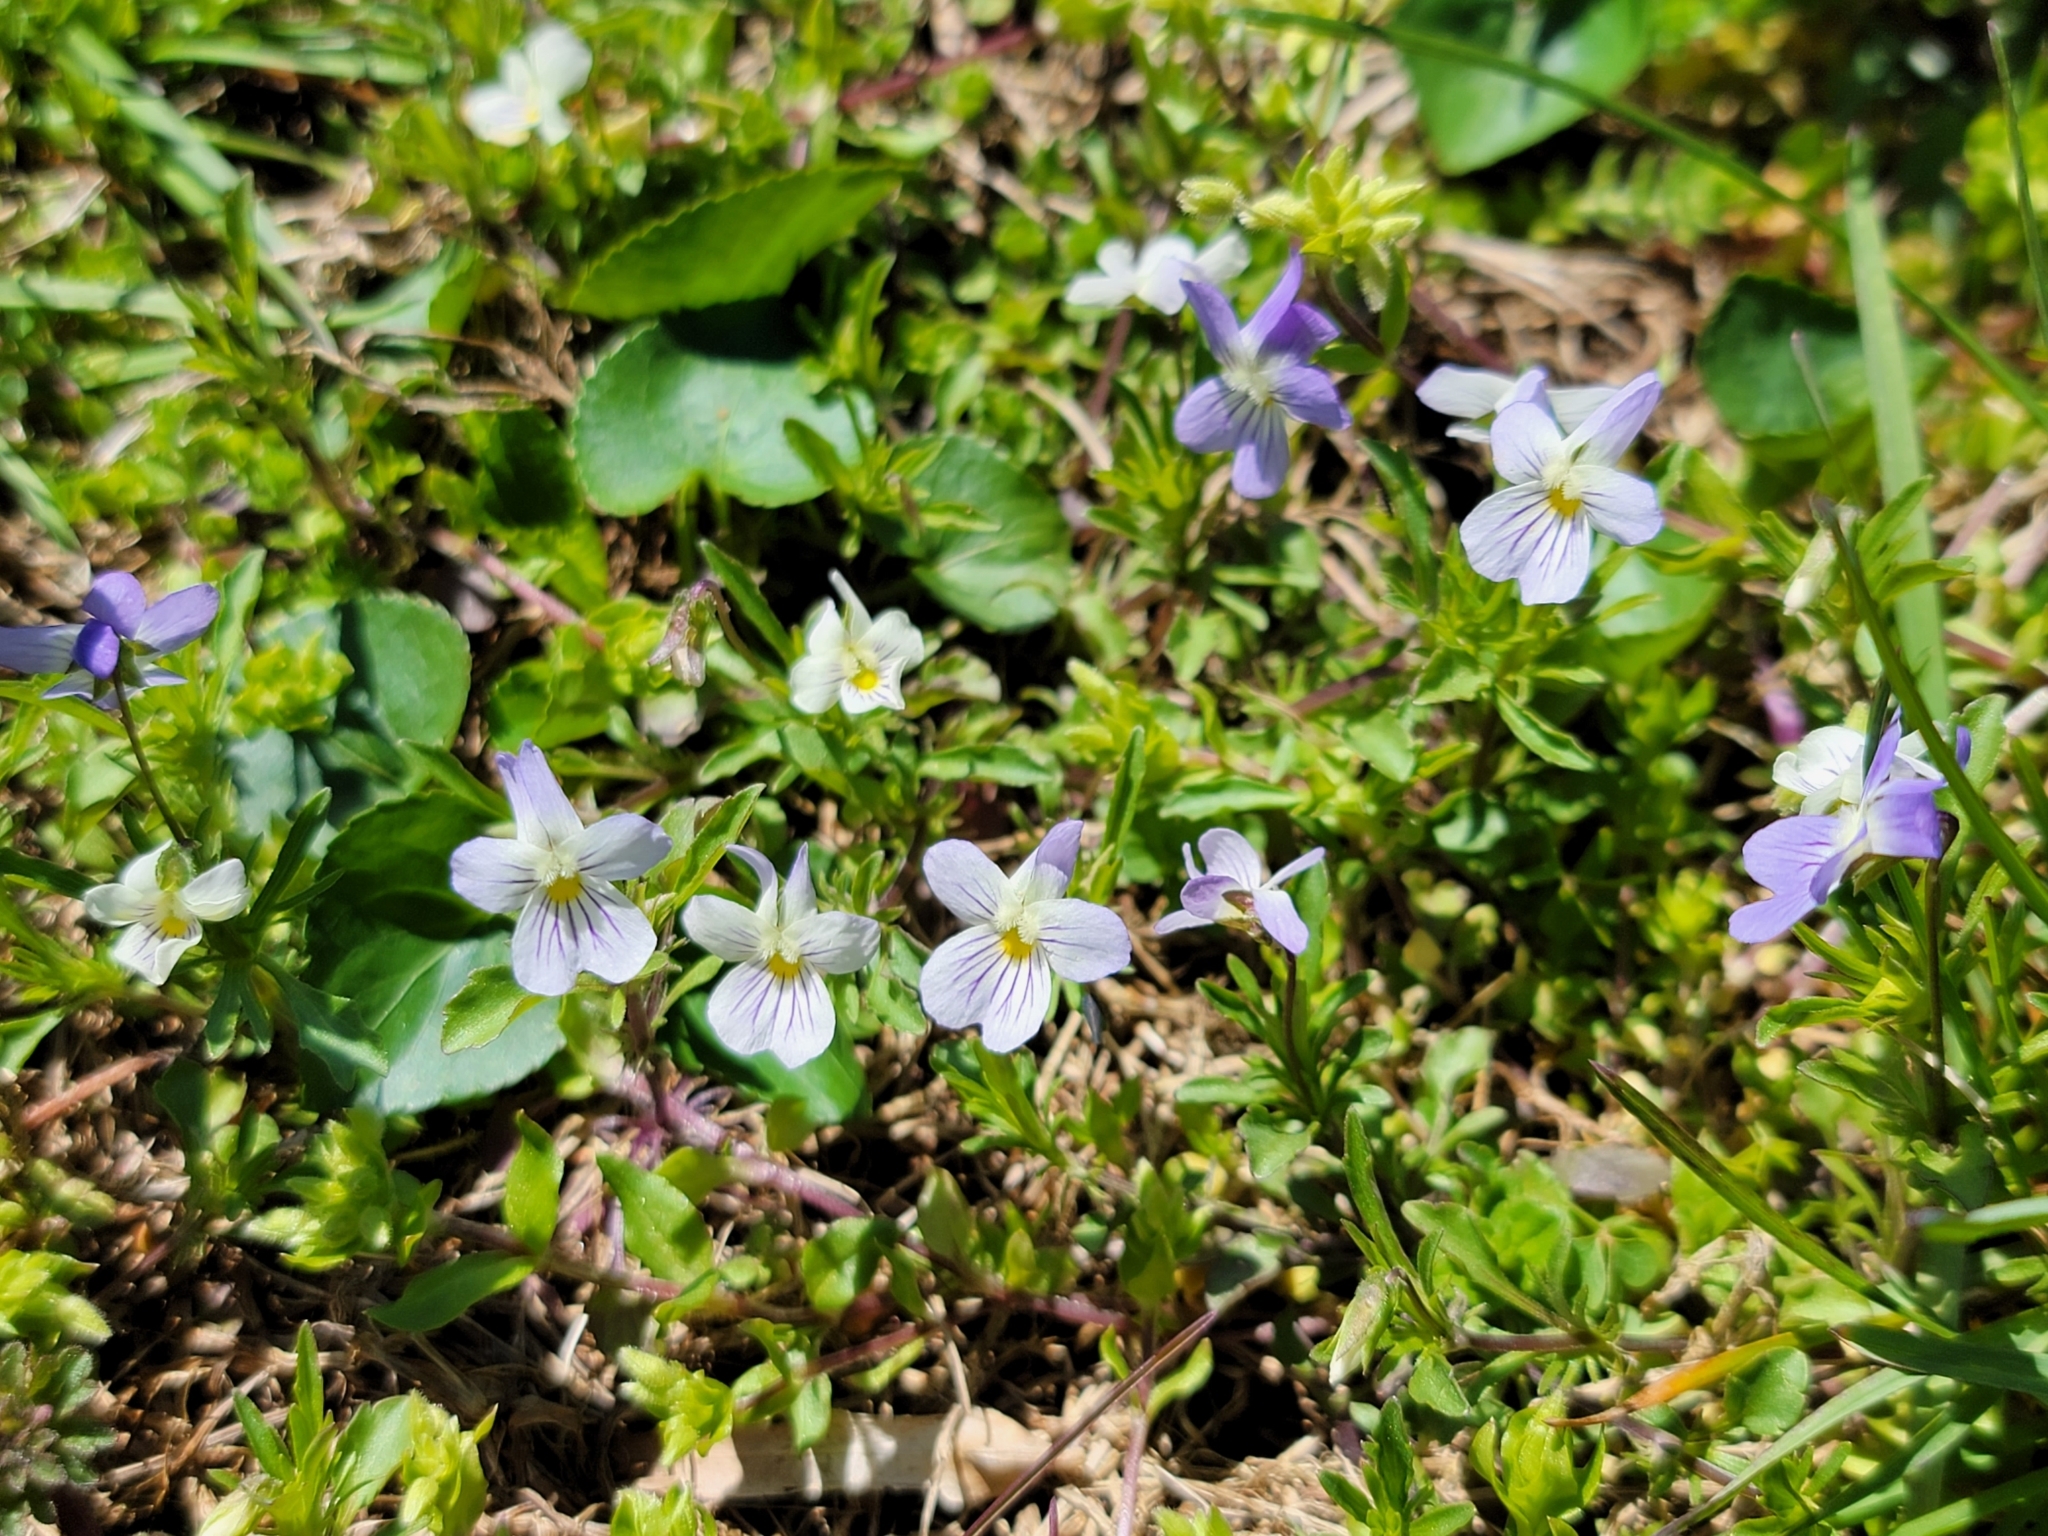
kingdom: Plantae
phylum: Tracheophyta
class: Magnoliopsida
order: Malpighiales
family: Violaceae
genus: Viola
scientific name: Viola rafinesquei
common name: American field pansy
